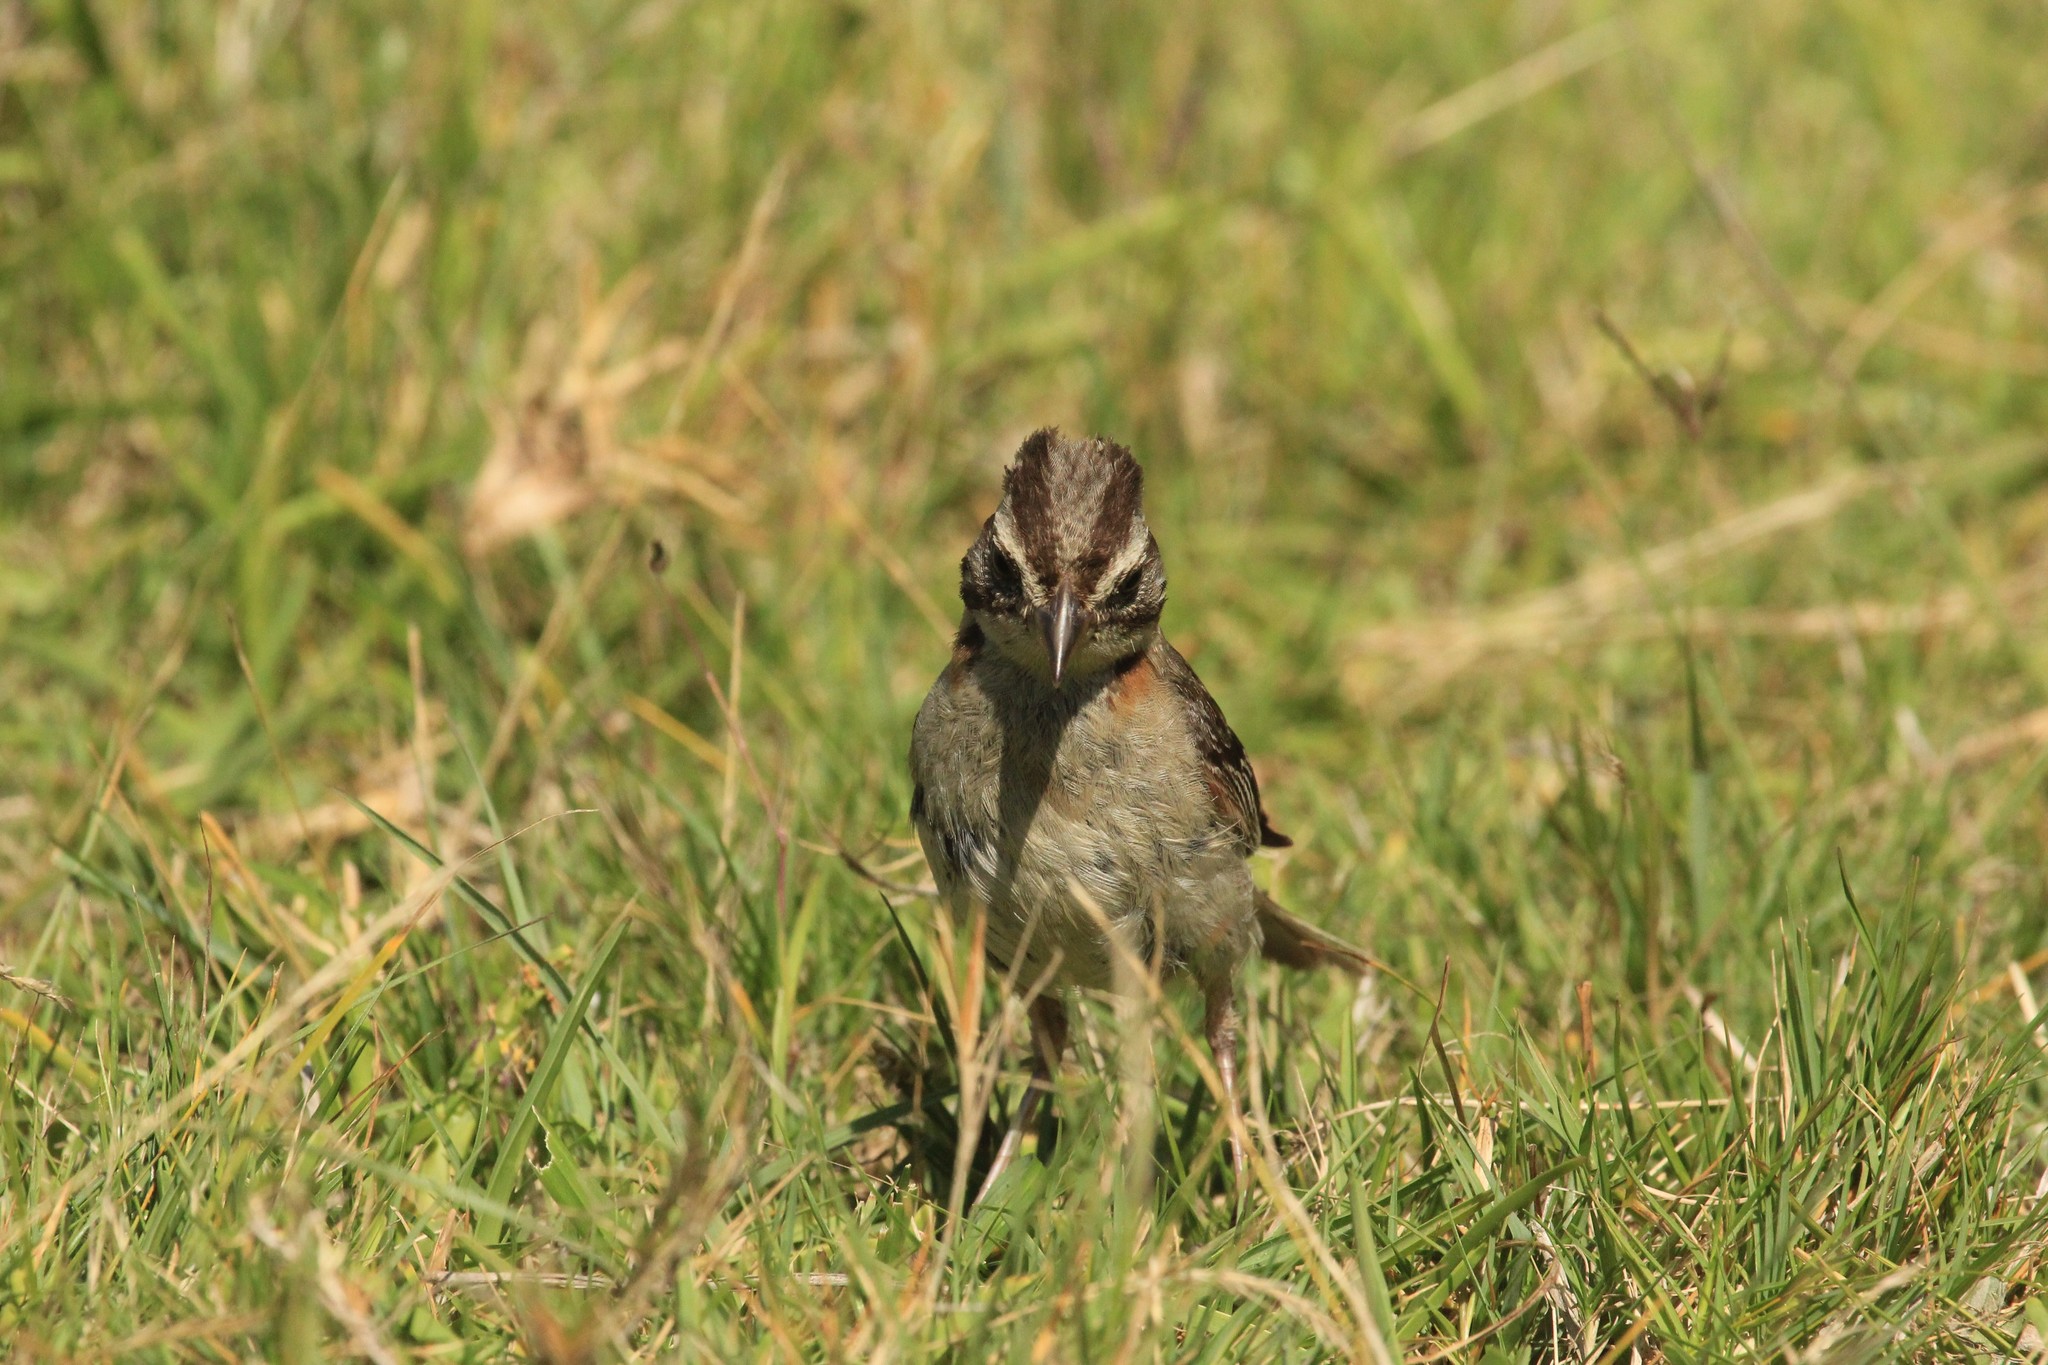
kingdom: Animalia
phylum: Chordata
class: Aves
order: Passeriformes
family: Passerellidae
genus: Zonotrichia
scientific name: Zonotrichia capensis
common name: Rufous-collared sparrow
